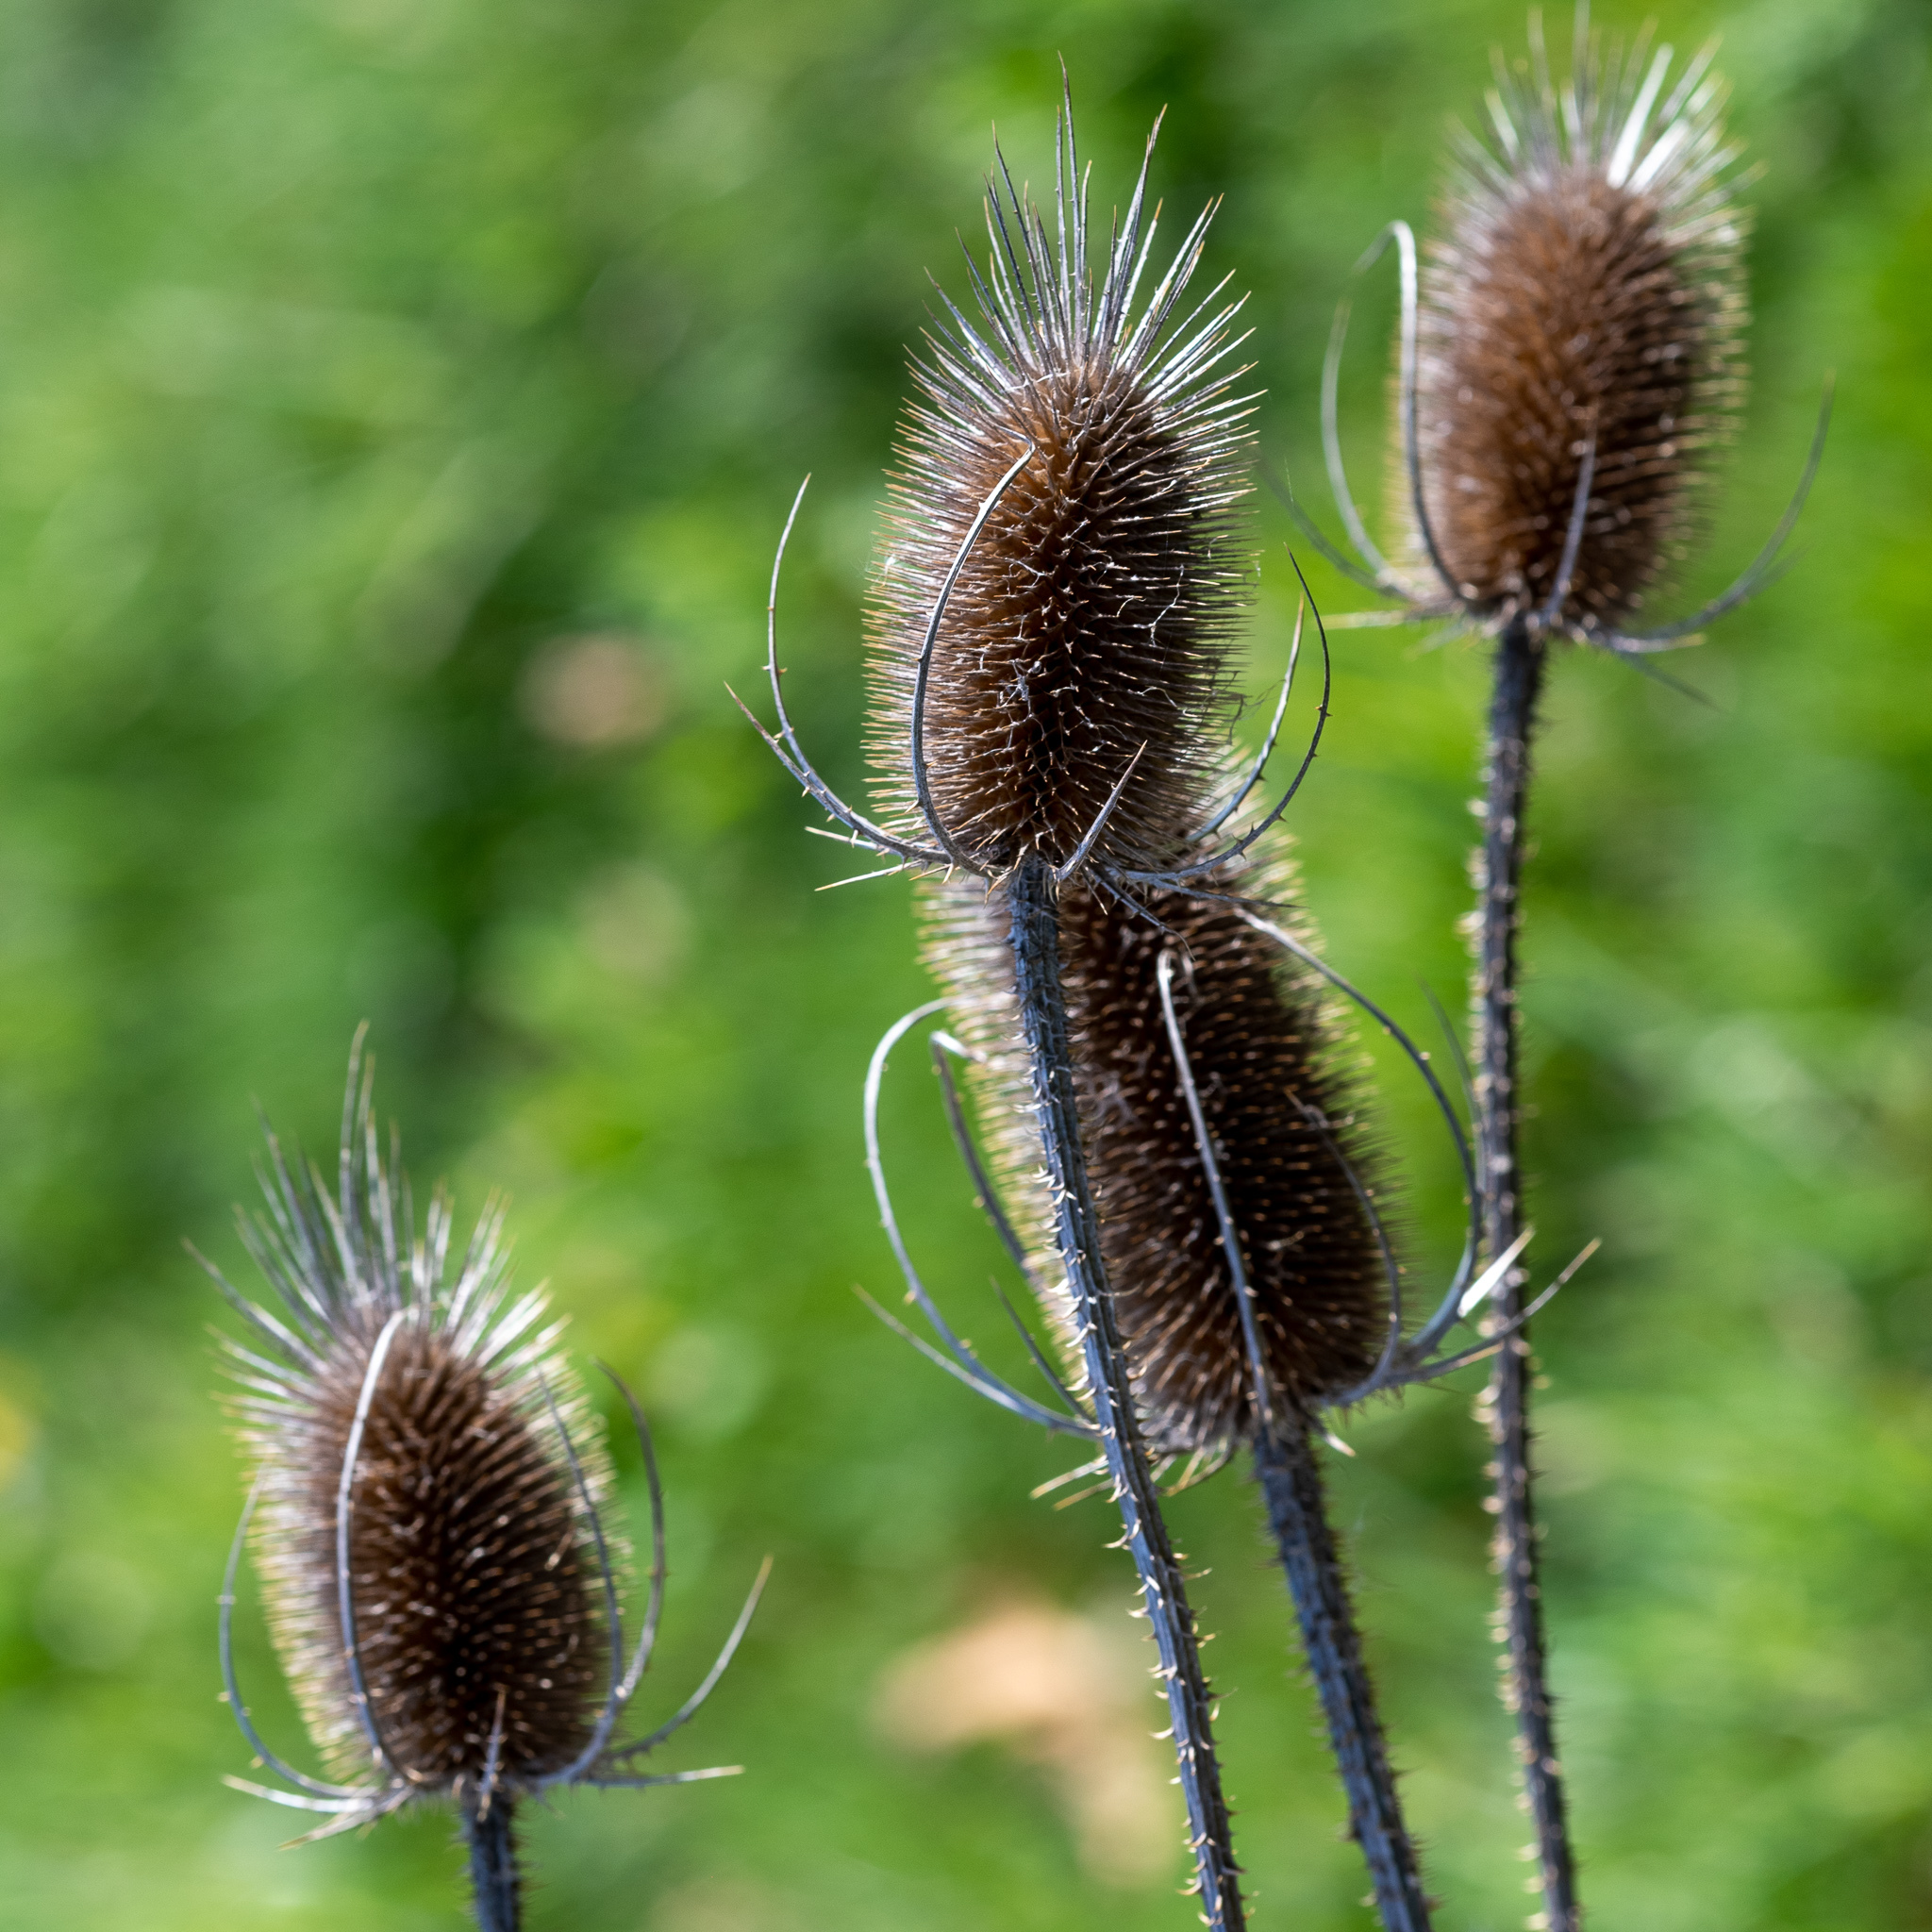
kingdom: Plantae
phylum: Tracheophyta
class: Magnoliopsida
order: Dipsacales
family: Caprifoliaceae
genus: Dipsacus
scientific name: Dipsacus fullonum
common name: Teasel
